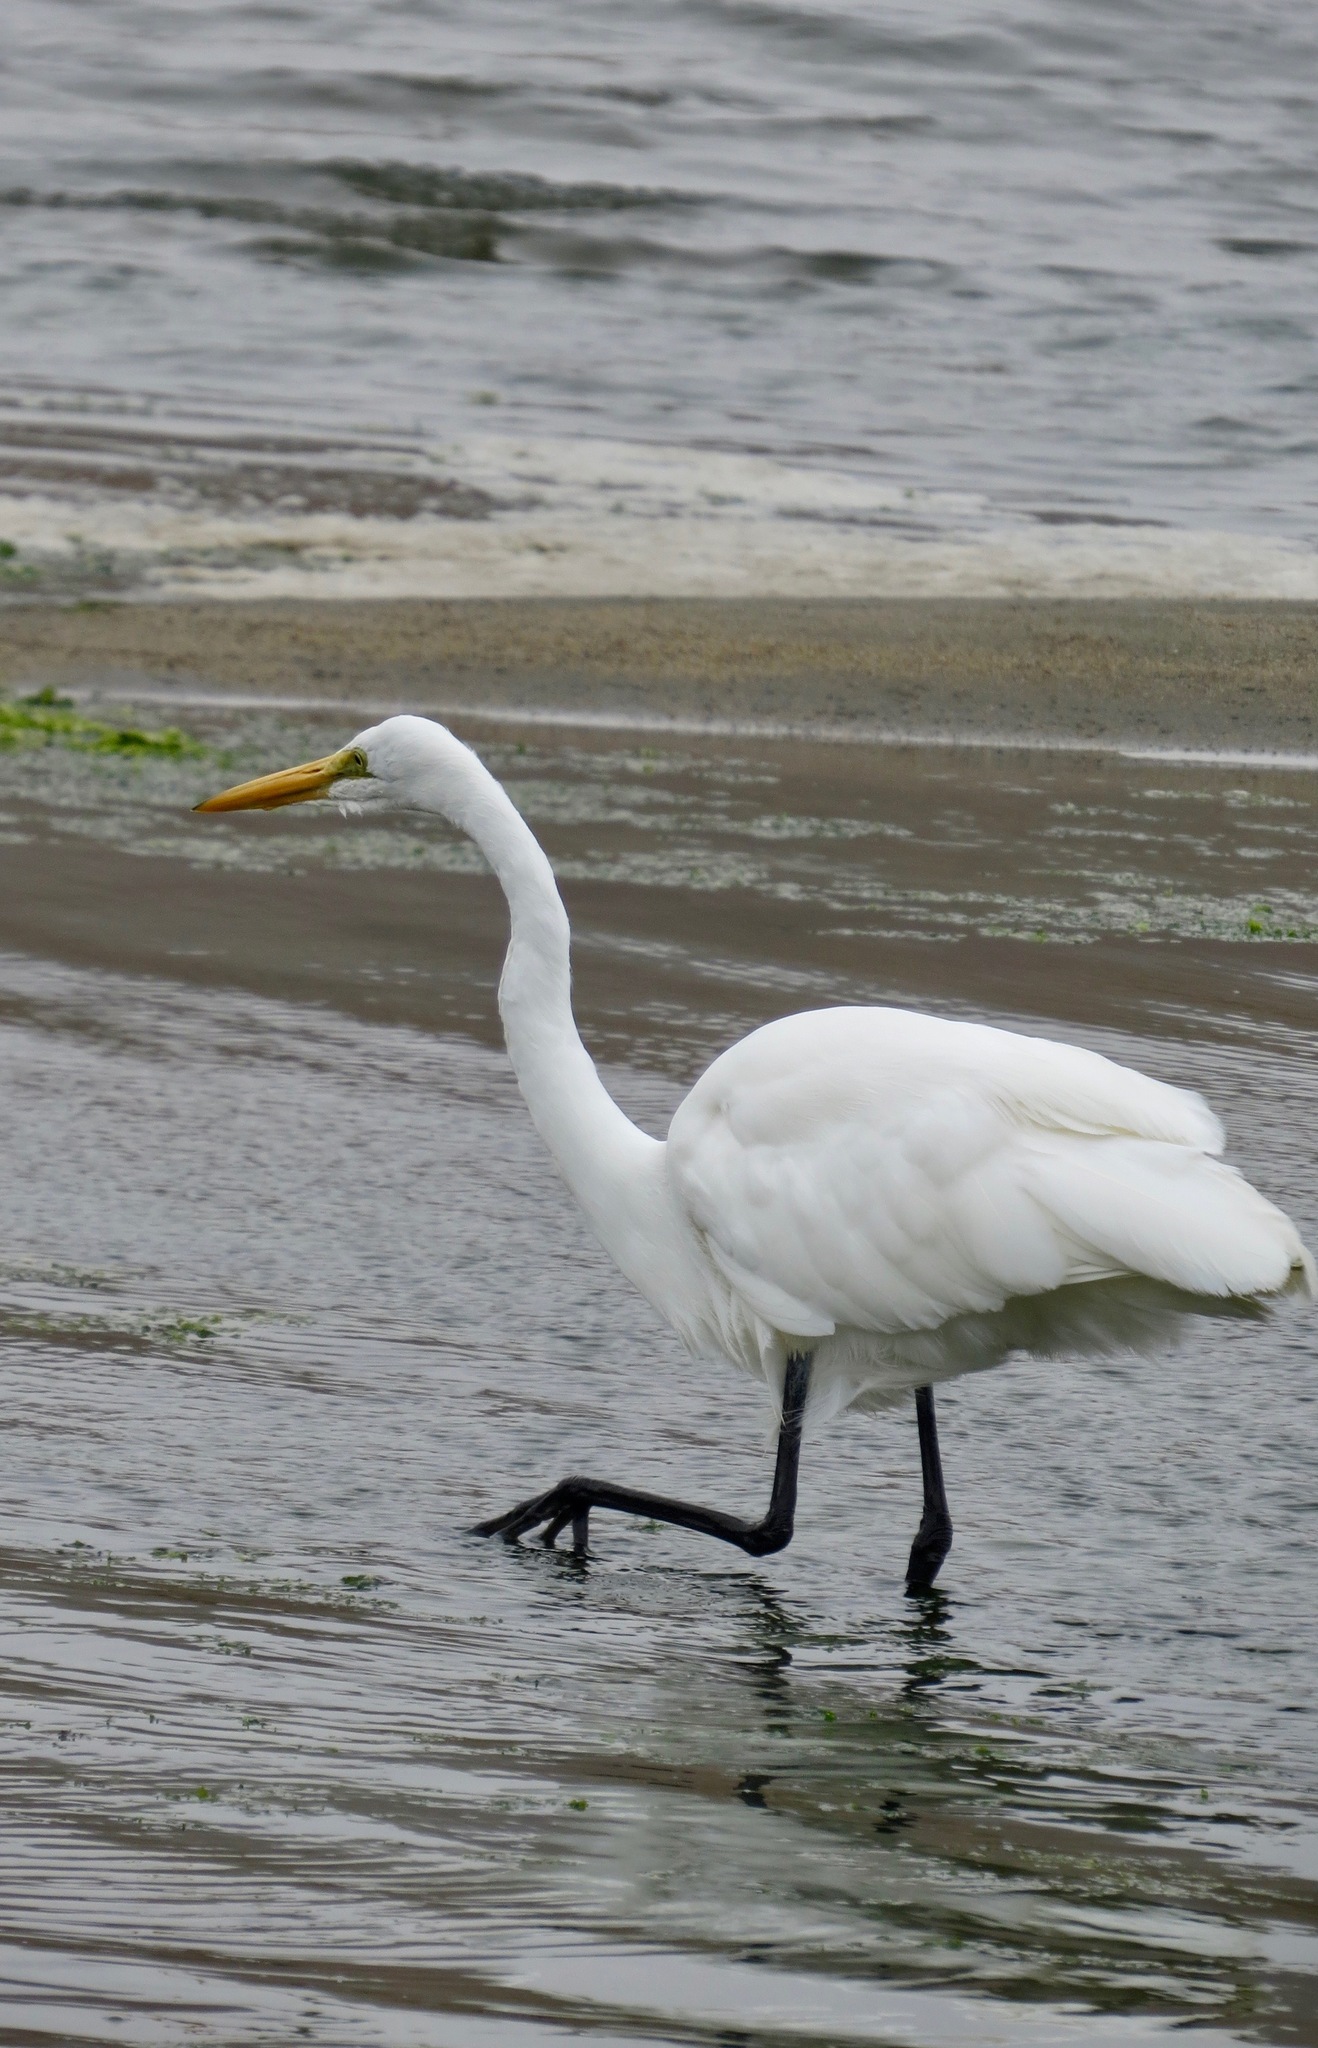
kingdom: Animalia
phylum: Chordata
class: Aves
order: Pelecaniformes
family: Ardeidae
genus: Ardea
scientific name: Ardea alba
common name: Great egret
